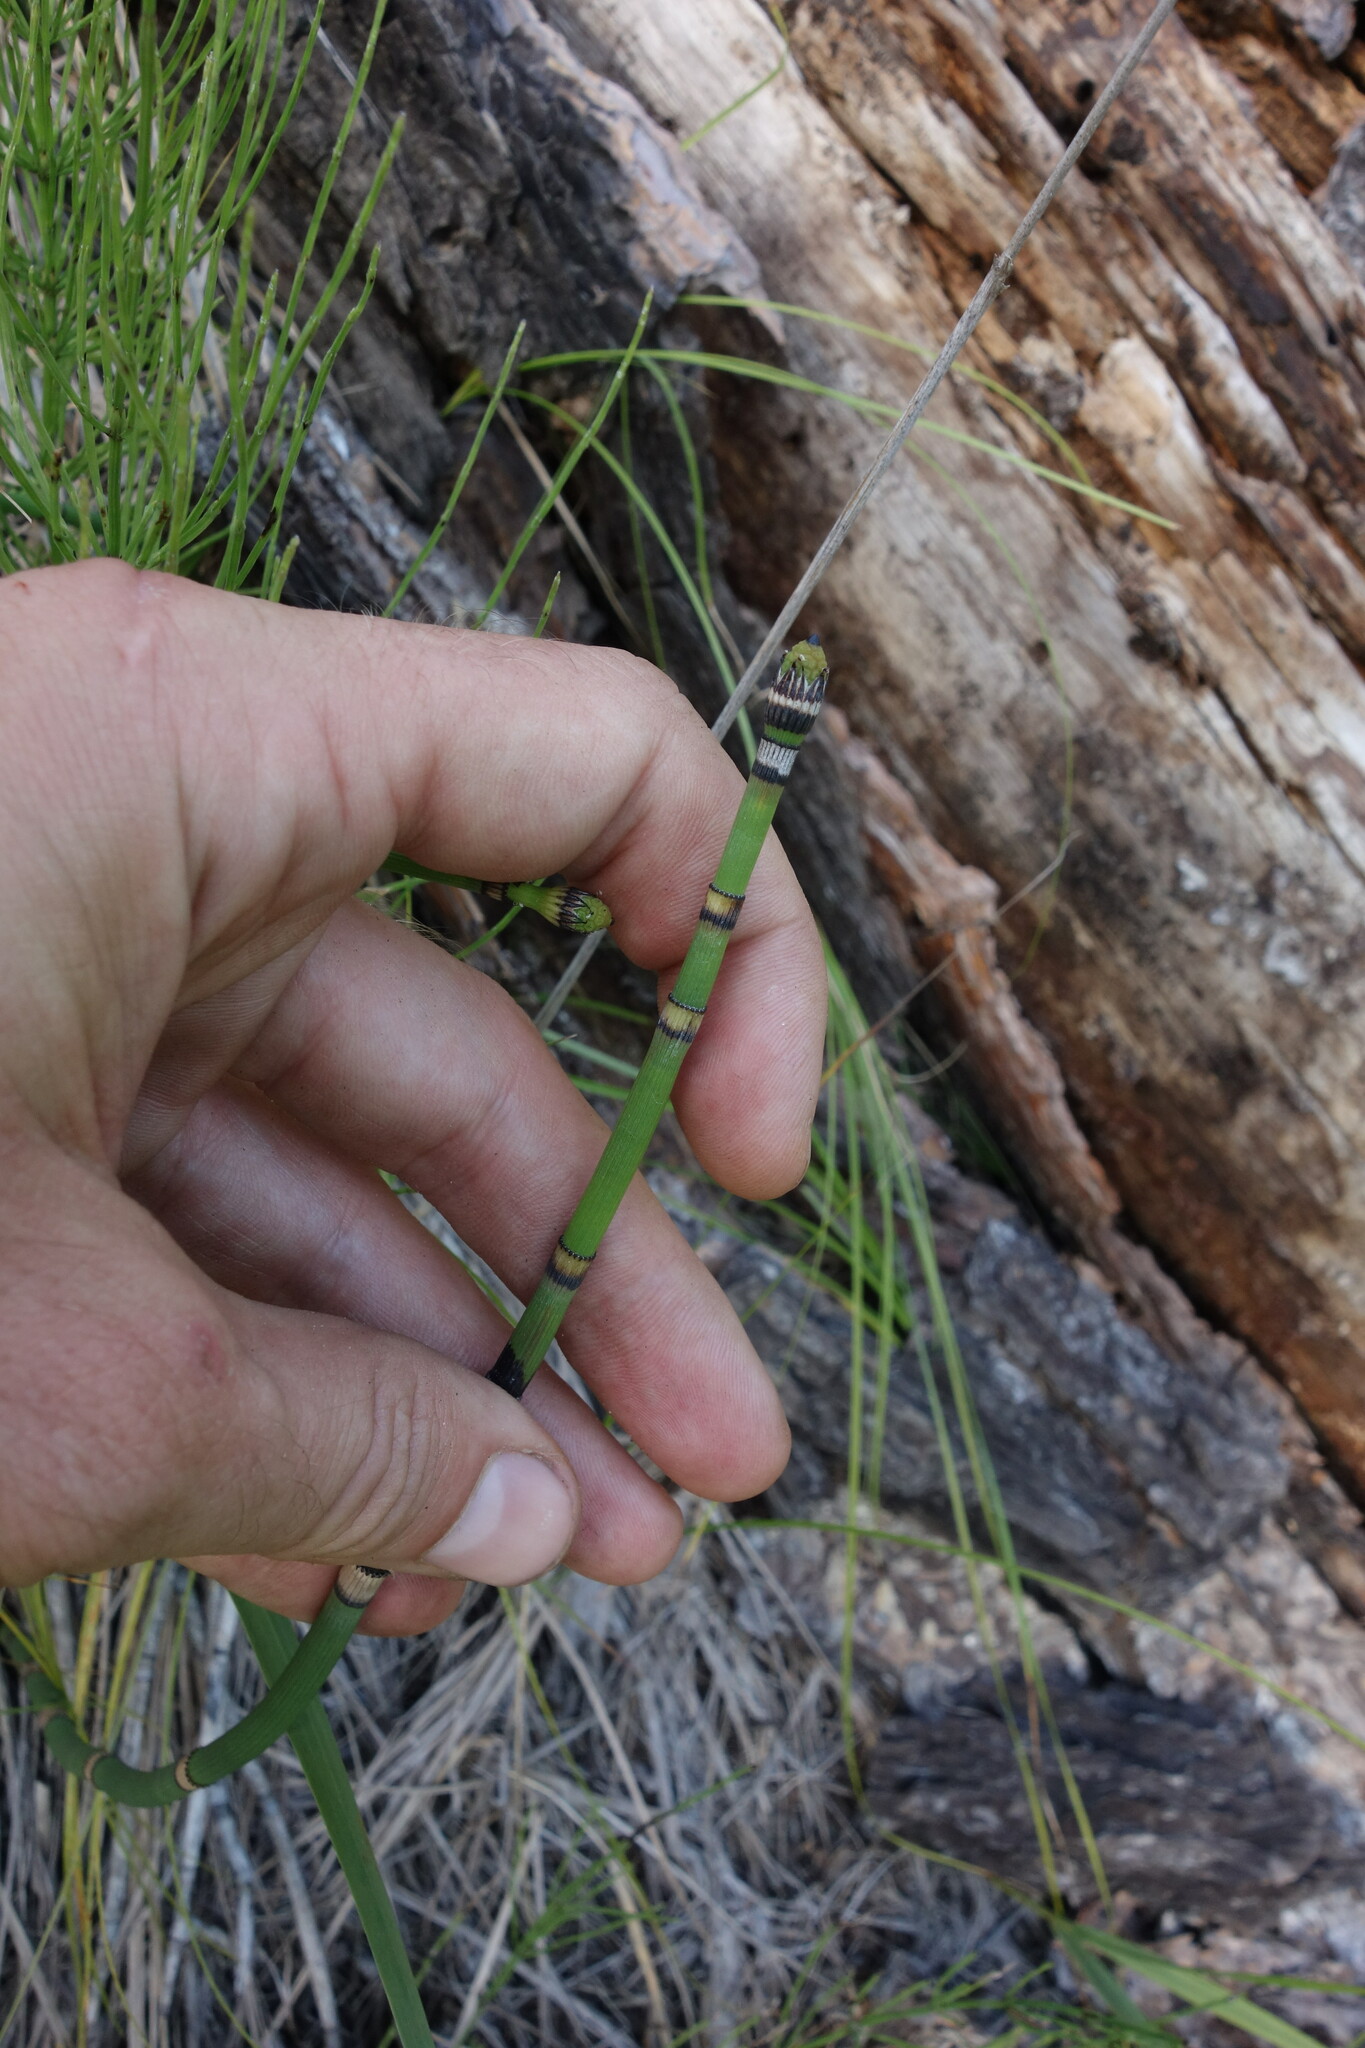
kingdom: Plantae
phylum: Tracheophyta
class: Polypodiopsida
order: Equisetales
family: Equisetaceae
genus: Equisetum
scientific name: Equisetum hyemale
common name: Rough horsetail
